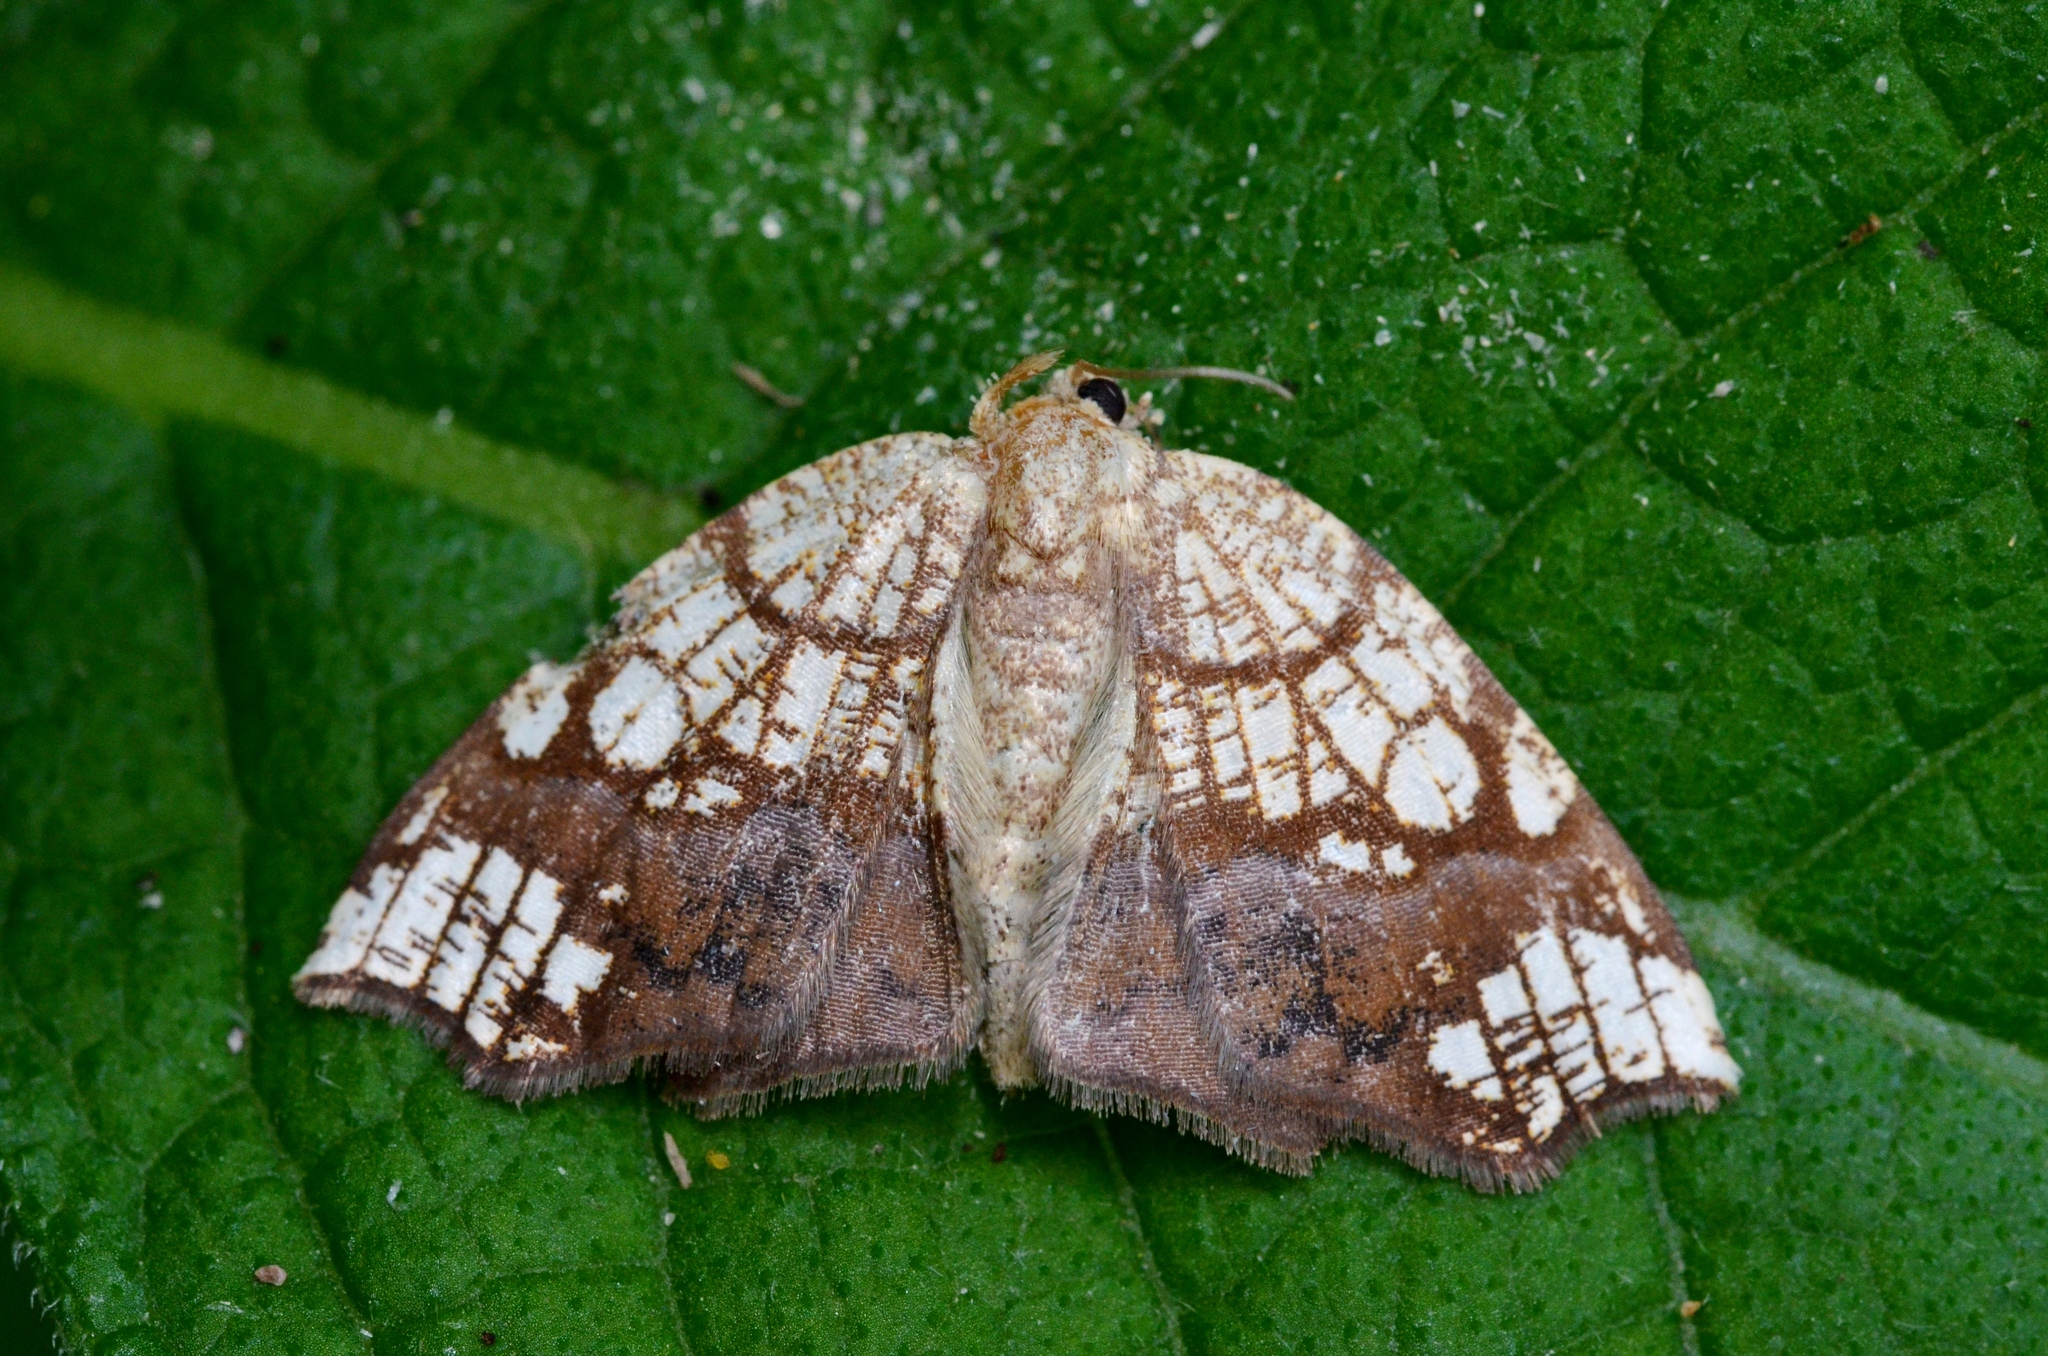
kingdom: Animalia
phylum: Arthropoda
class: Insecta
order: Lepidoptera
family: Geometridae
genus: Nematocampa
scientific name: Nematocampa resistaria
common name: Horned spanworm moth
